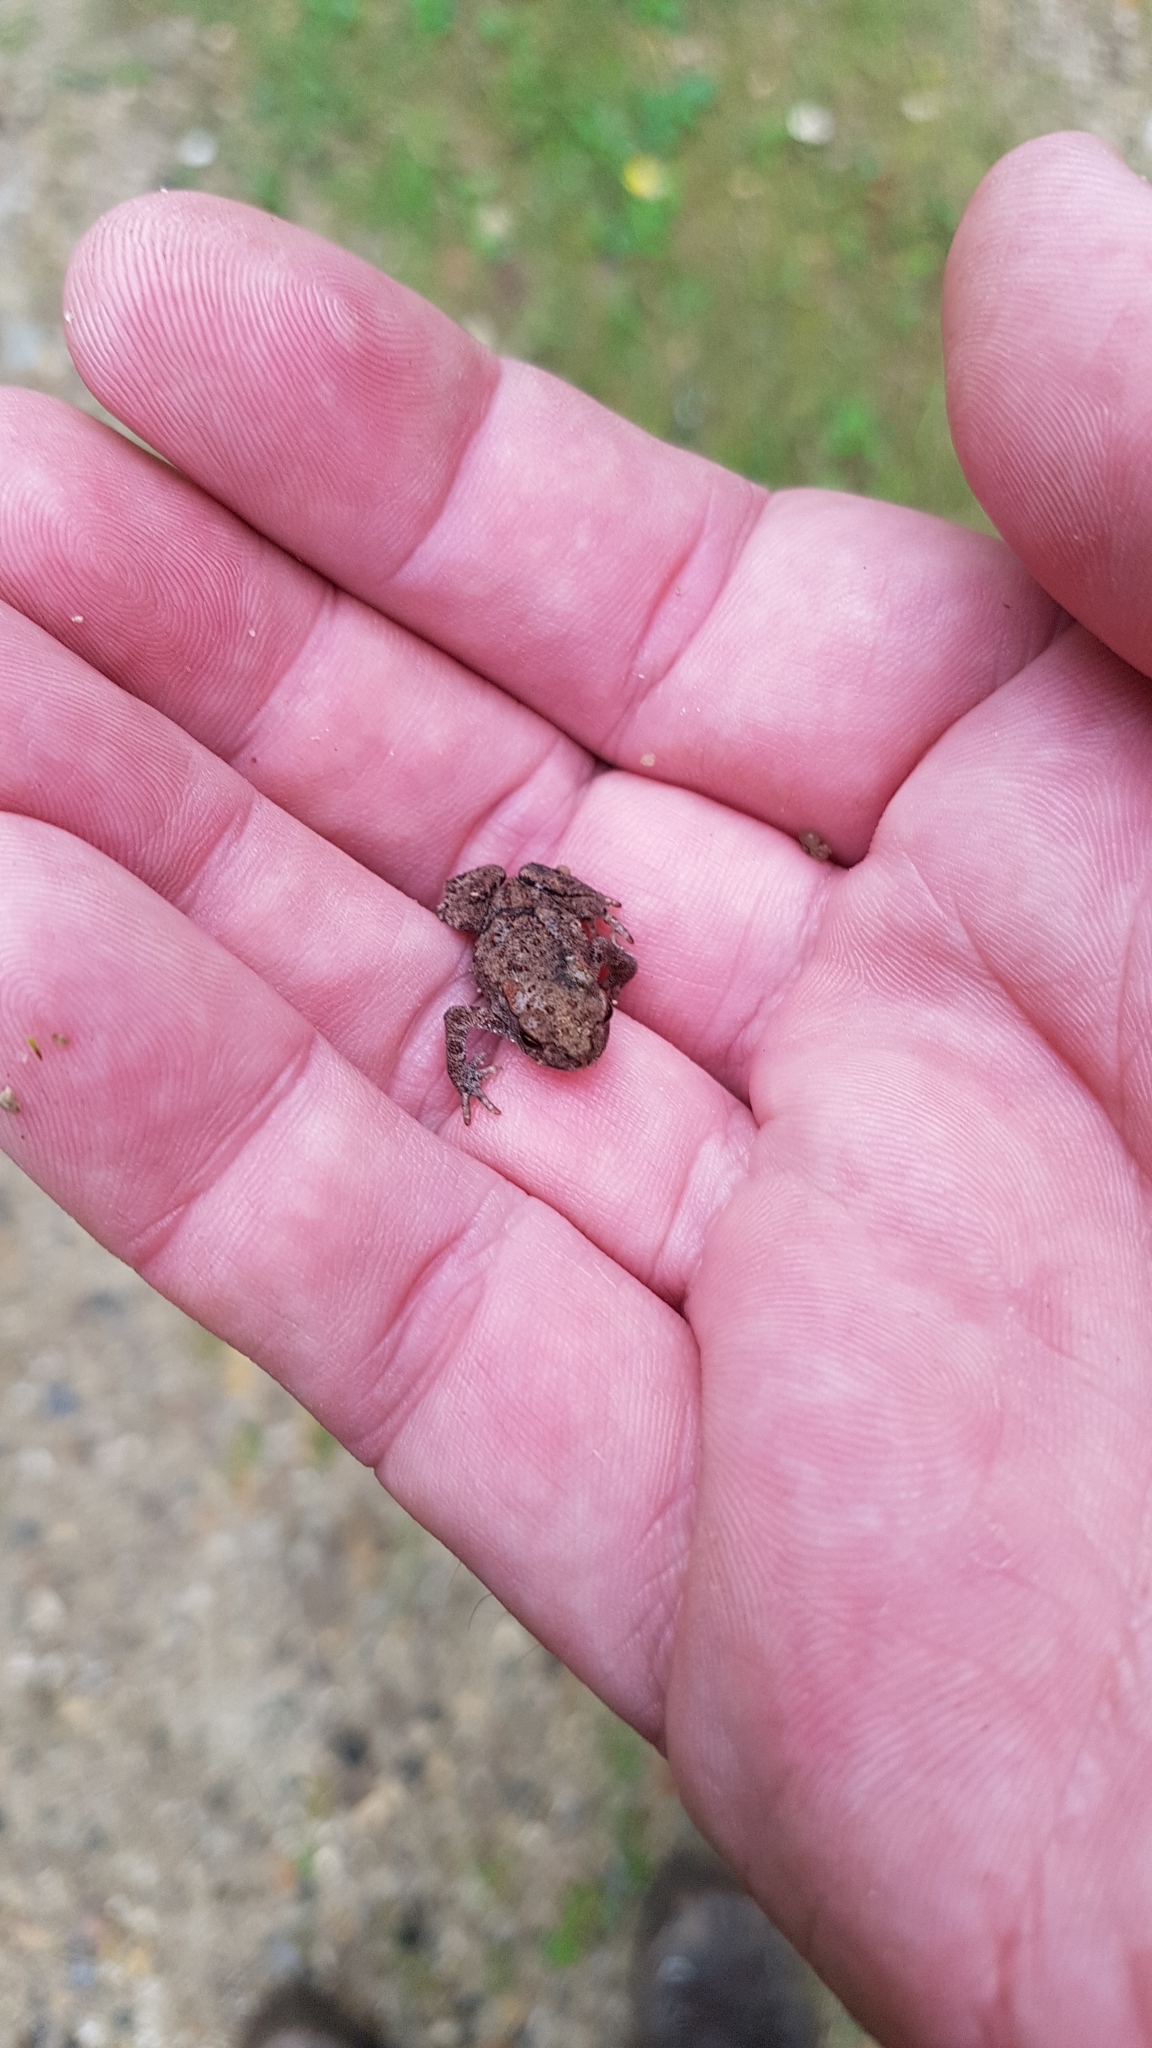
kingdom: Animalia
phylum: Chordata
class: Amphibia
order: Anura
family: Bufonidae
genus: Bufo
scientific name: Bufo bufo
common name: Common toad
